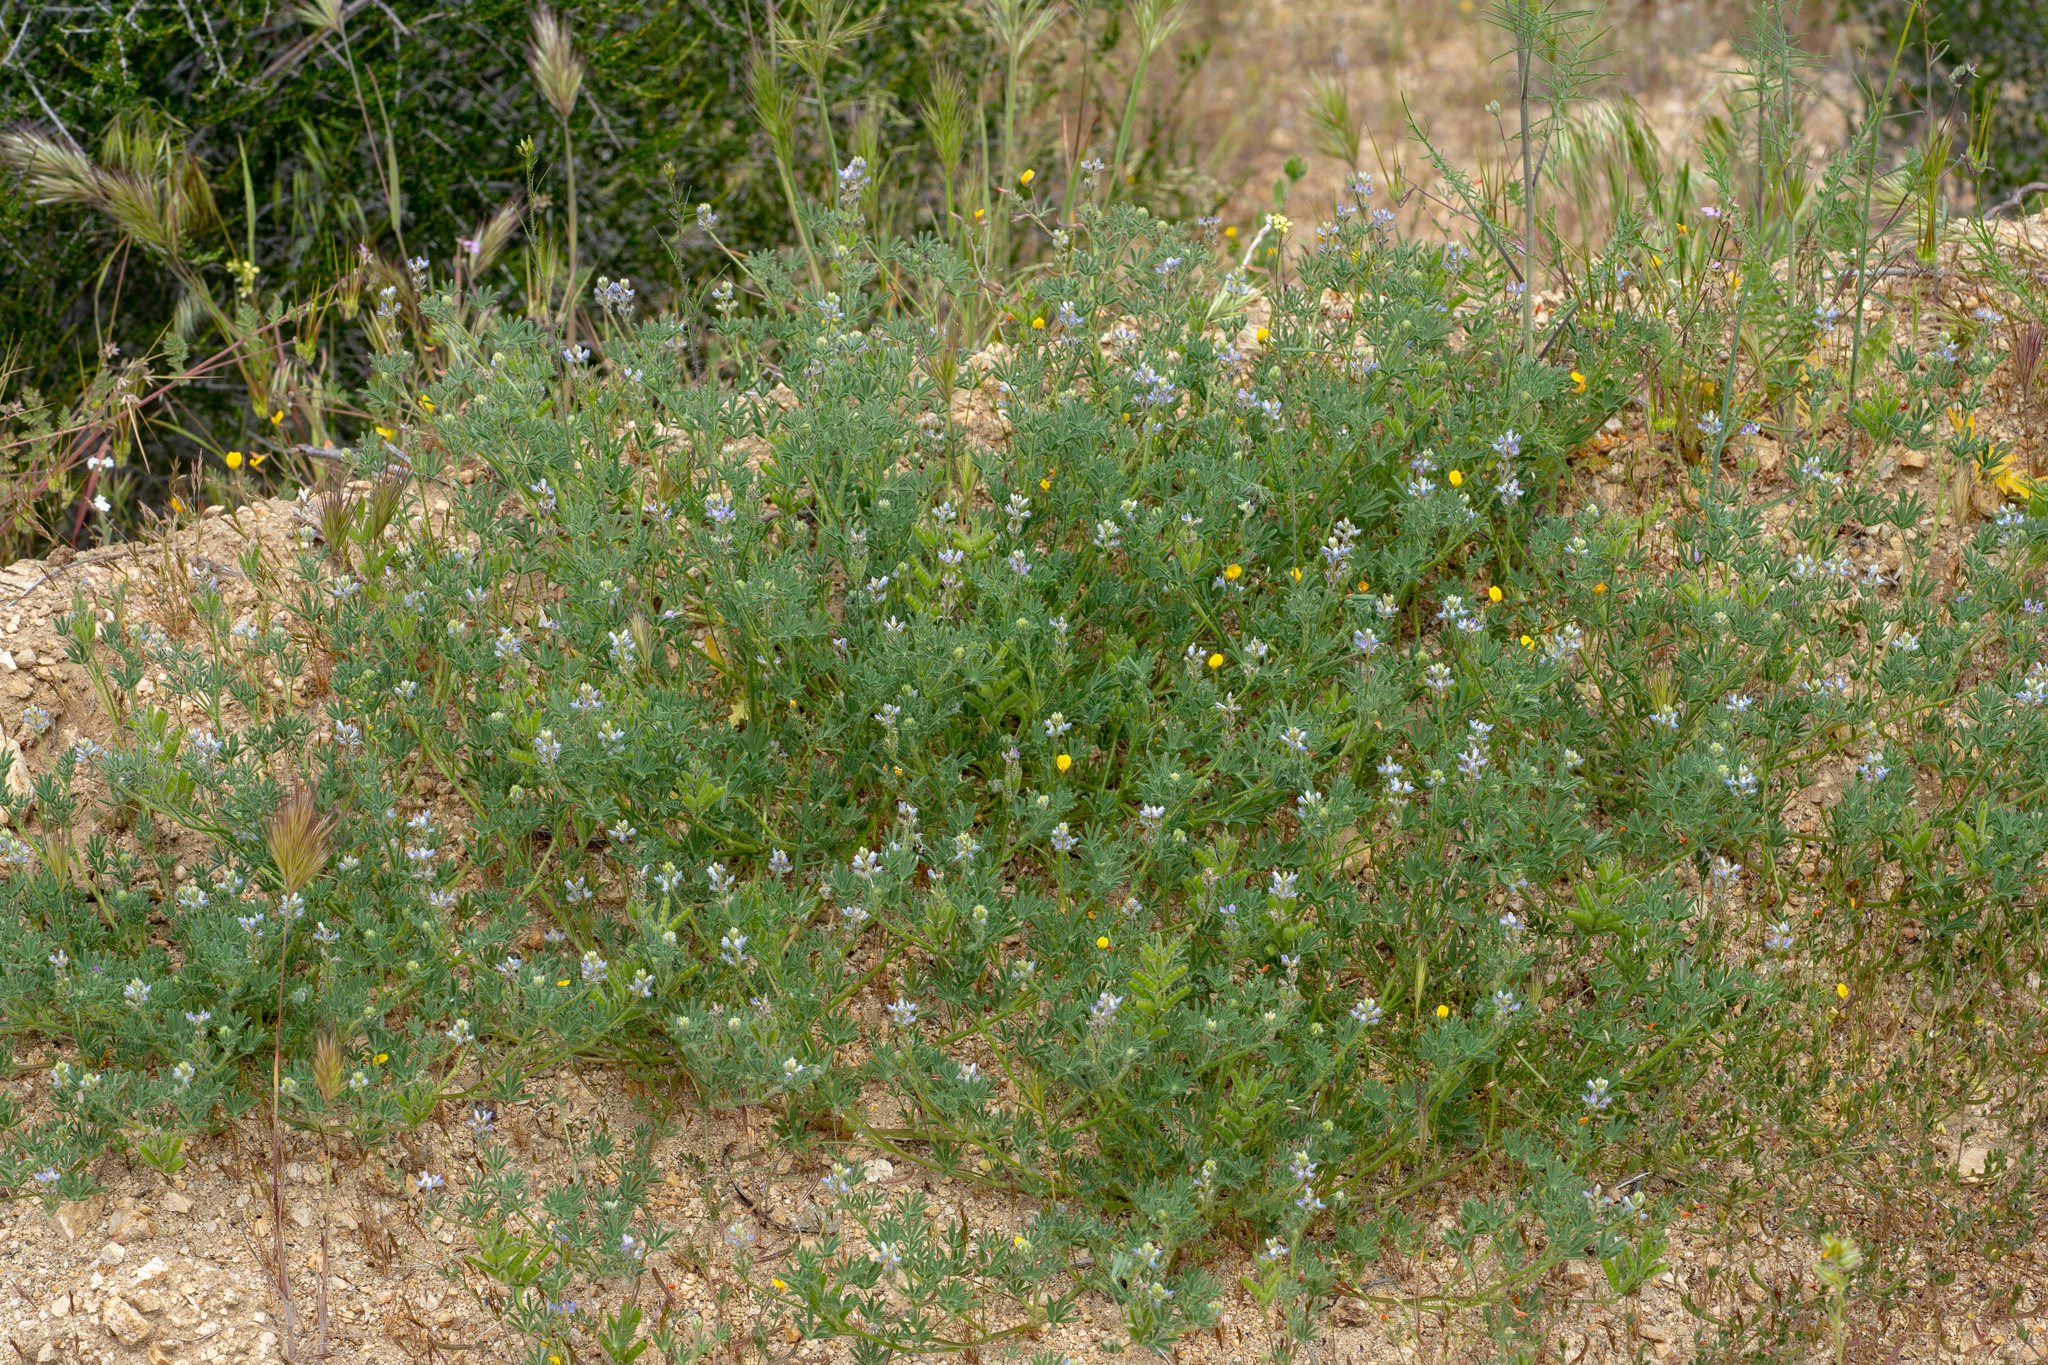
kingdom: Plantae
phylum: Tracheophyta
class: Magnoliopsida
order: Fabales
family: Fabaceae
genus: Lupinus
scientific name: Lupinus bicolor
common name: Miniature lupine
